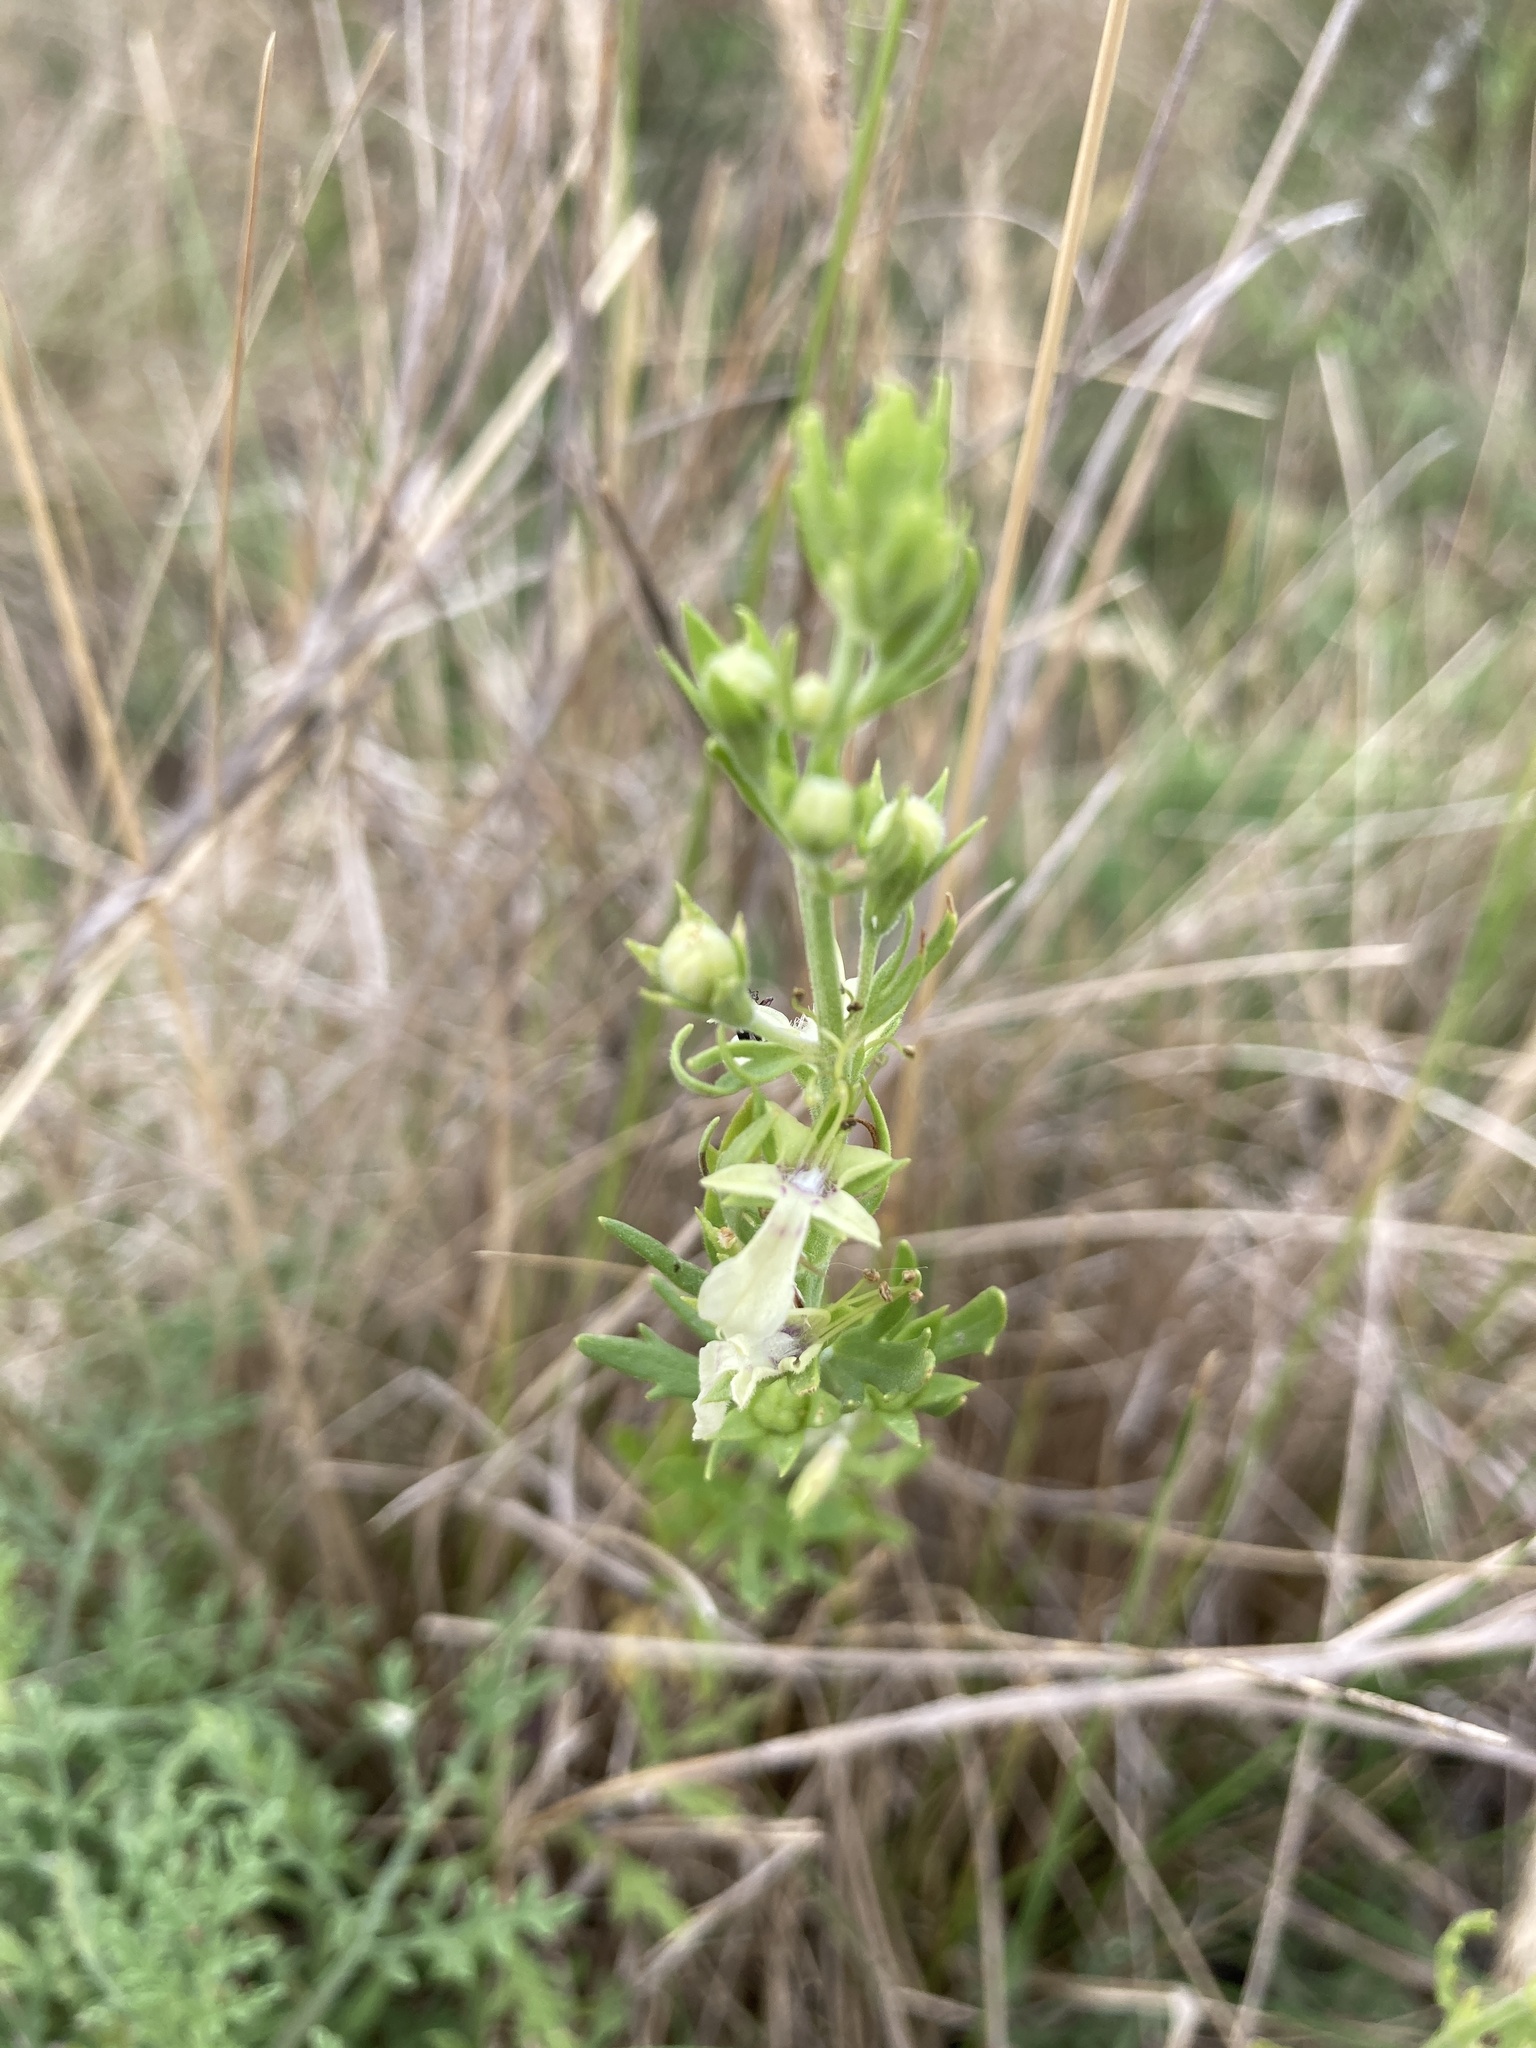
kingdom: Plantae
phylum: Tracheophyta
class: Magnoliopsida
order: Lamiales
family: Lamiaceae
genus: Teucrium
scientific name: Teucrium cubense
